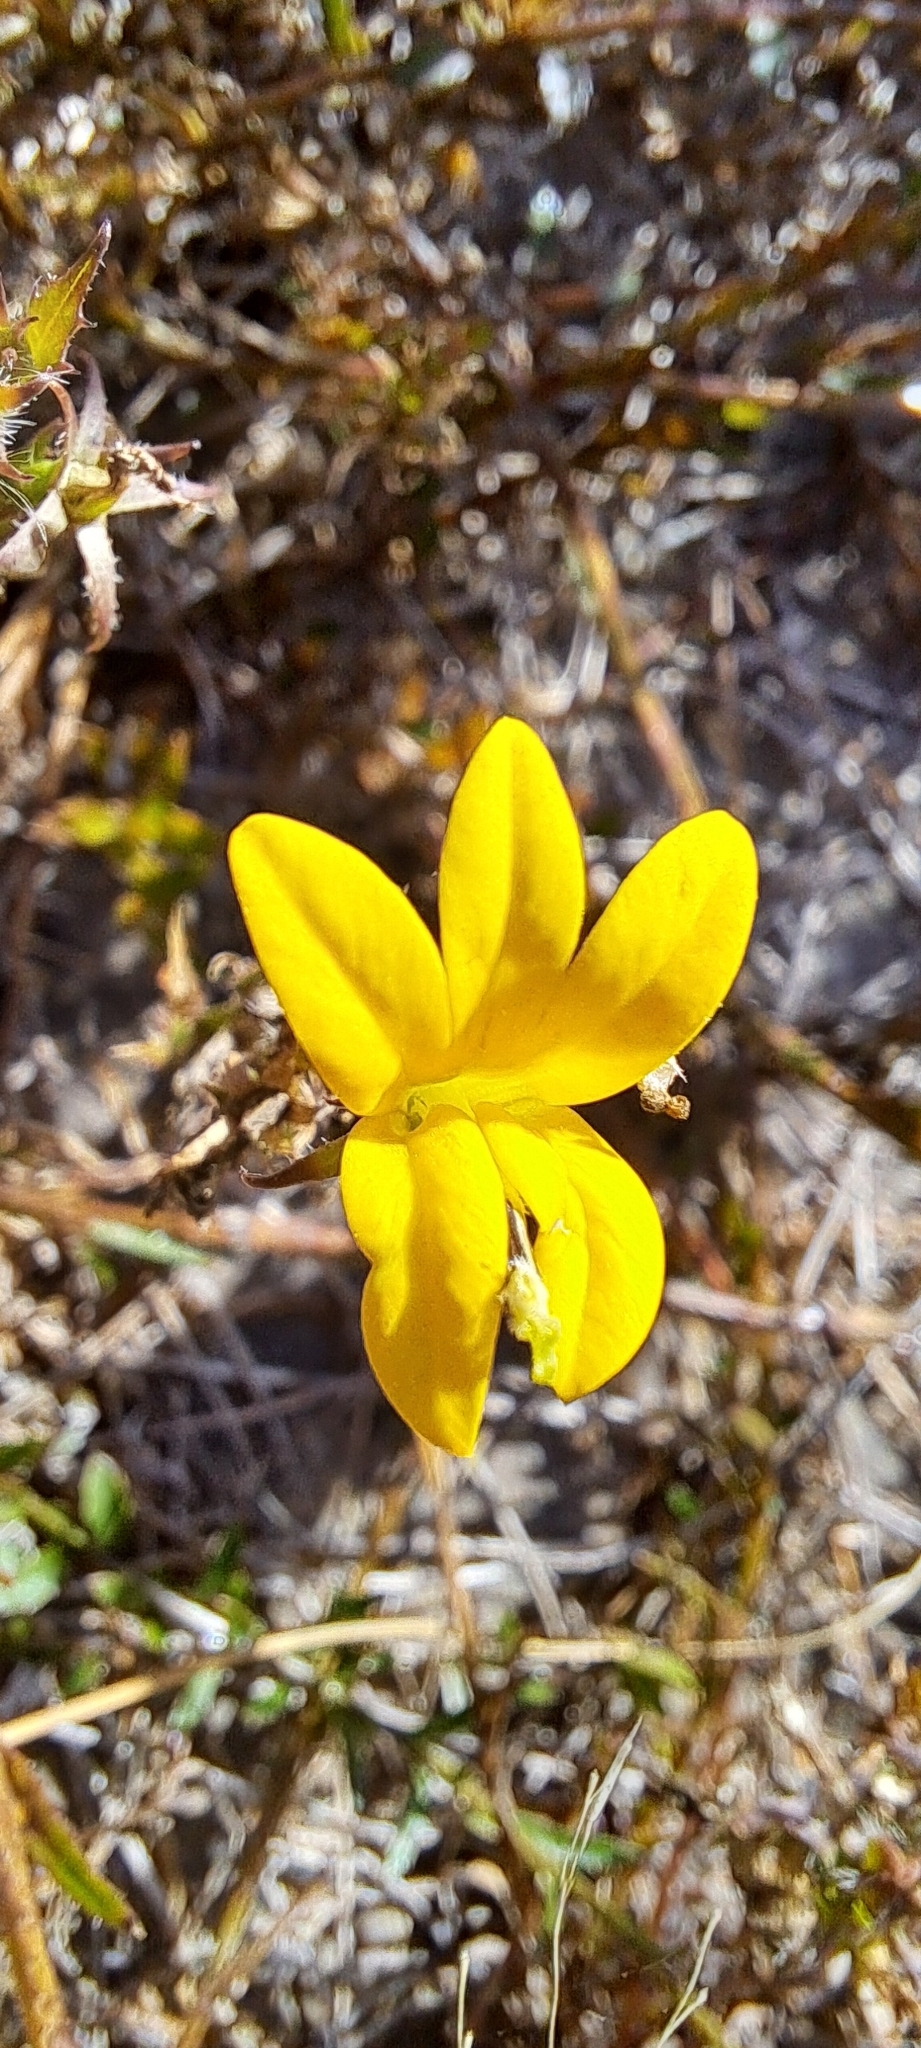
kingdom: Plantae
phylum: Tracheophyta
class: Magnoliopsida
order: Asterales
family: Campanulaceae
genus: Monopsis
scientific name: Monopsis lutea
